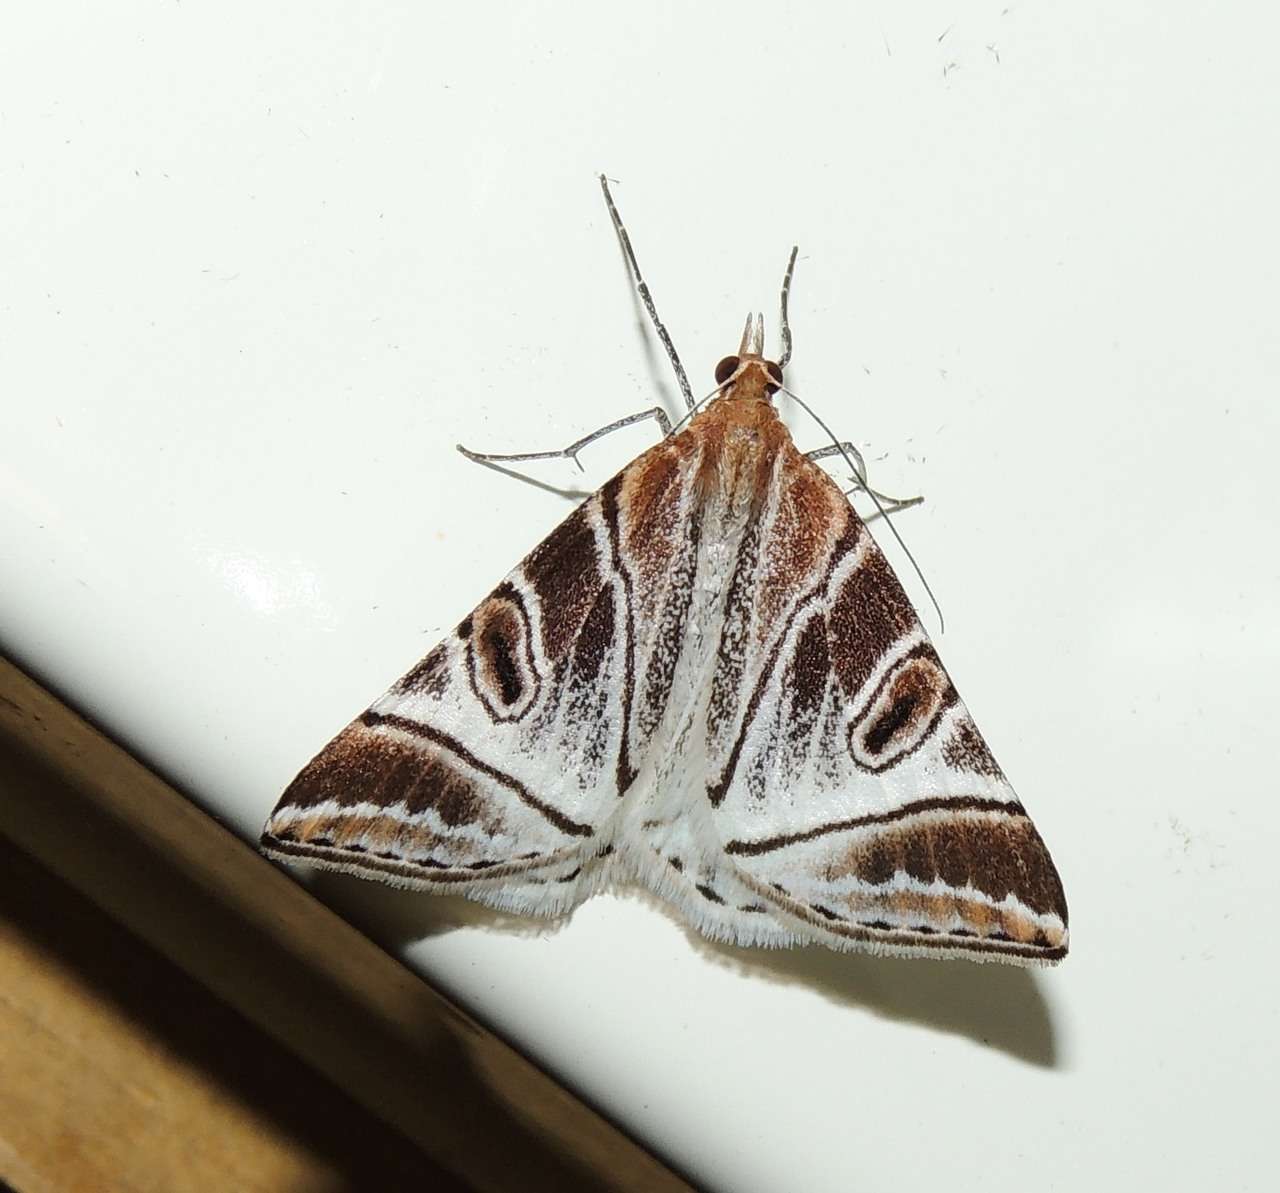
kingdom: Animalia
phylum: Arthropoda
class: Insecta
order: Lepidoptera
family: Geometridae
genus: Phrataria
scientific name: Phrataria replicataria
